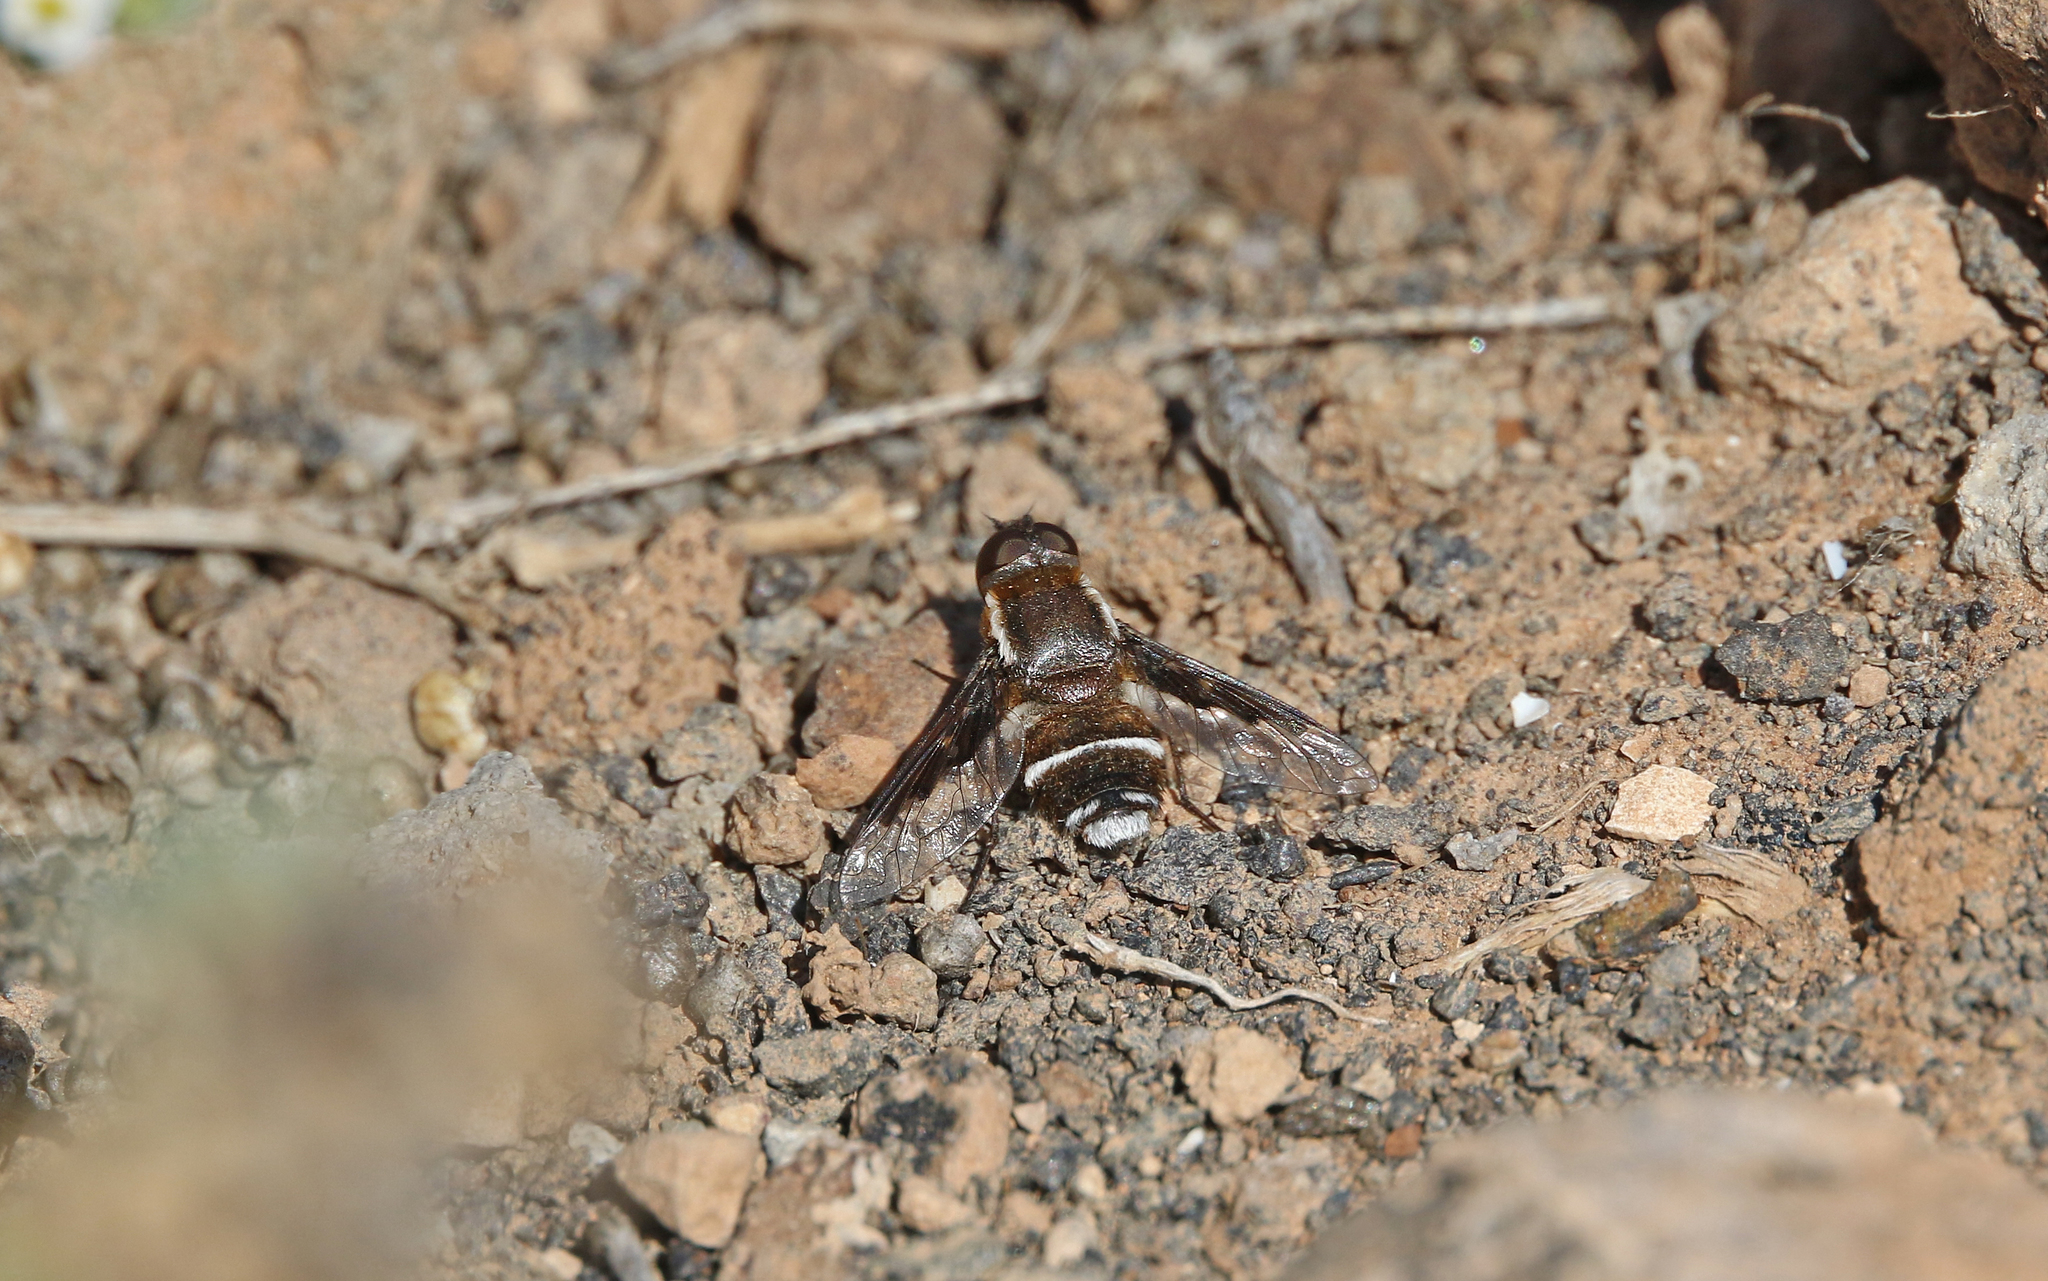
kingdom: Animalia
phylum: Arthropoda
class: Insecta
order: Diptera
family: Bombyliidae
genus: Exhyalanthrax
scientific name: Exhyalanthrax simonae
